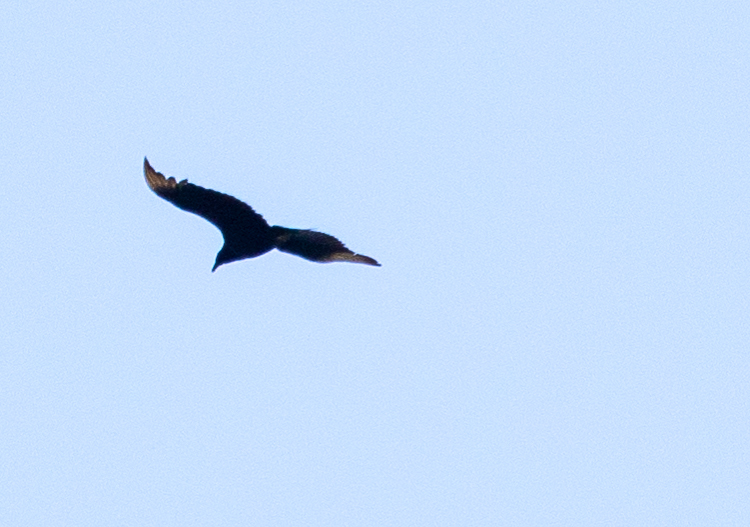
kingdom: Animalia
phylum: Chordata
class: Aves
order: Accipitriformes
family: Cathartidae
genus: Coragyps
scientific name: Coragyps atratus
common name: Black vulture
